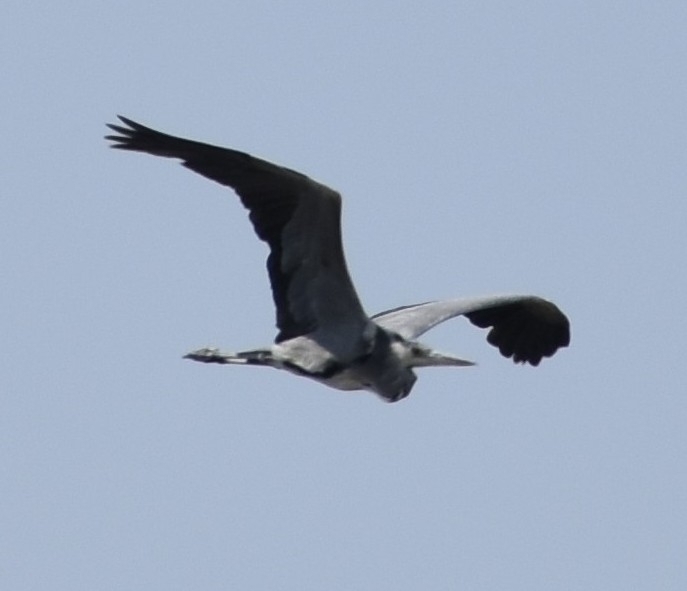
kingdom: Animalia
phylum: Chordata
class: Aves
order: Pelecaniformes
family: Ardeidae
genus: Ardea
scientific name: Ardea cinerea
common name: Grey heron
